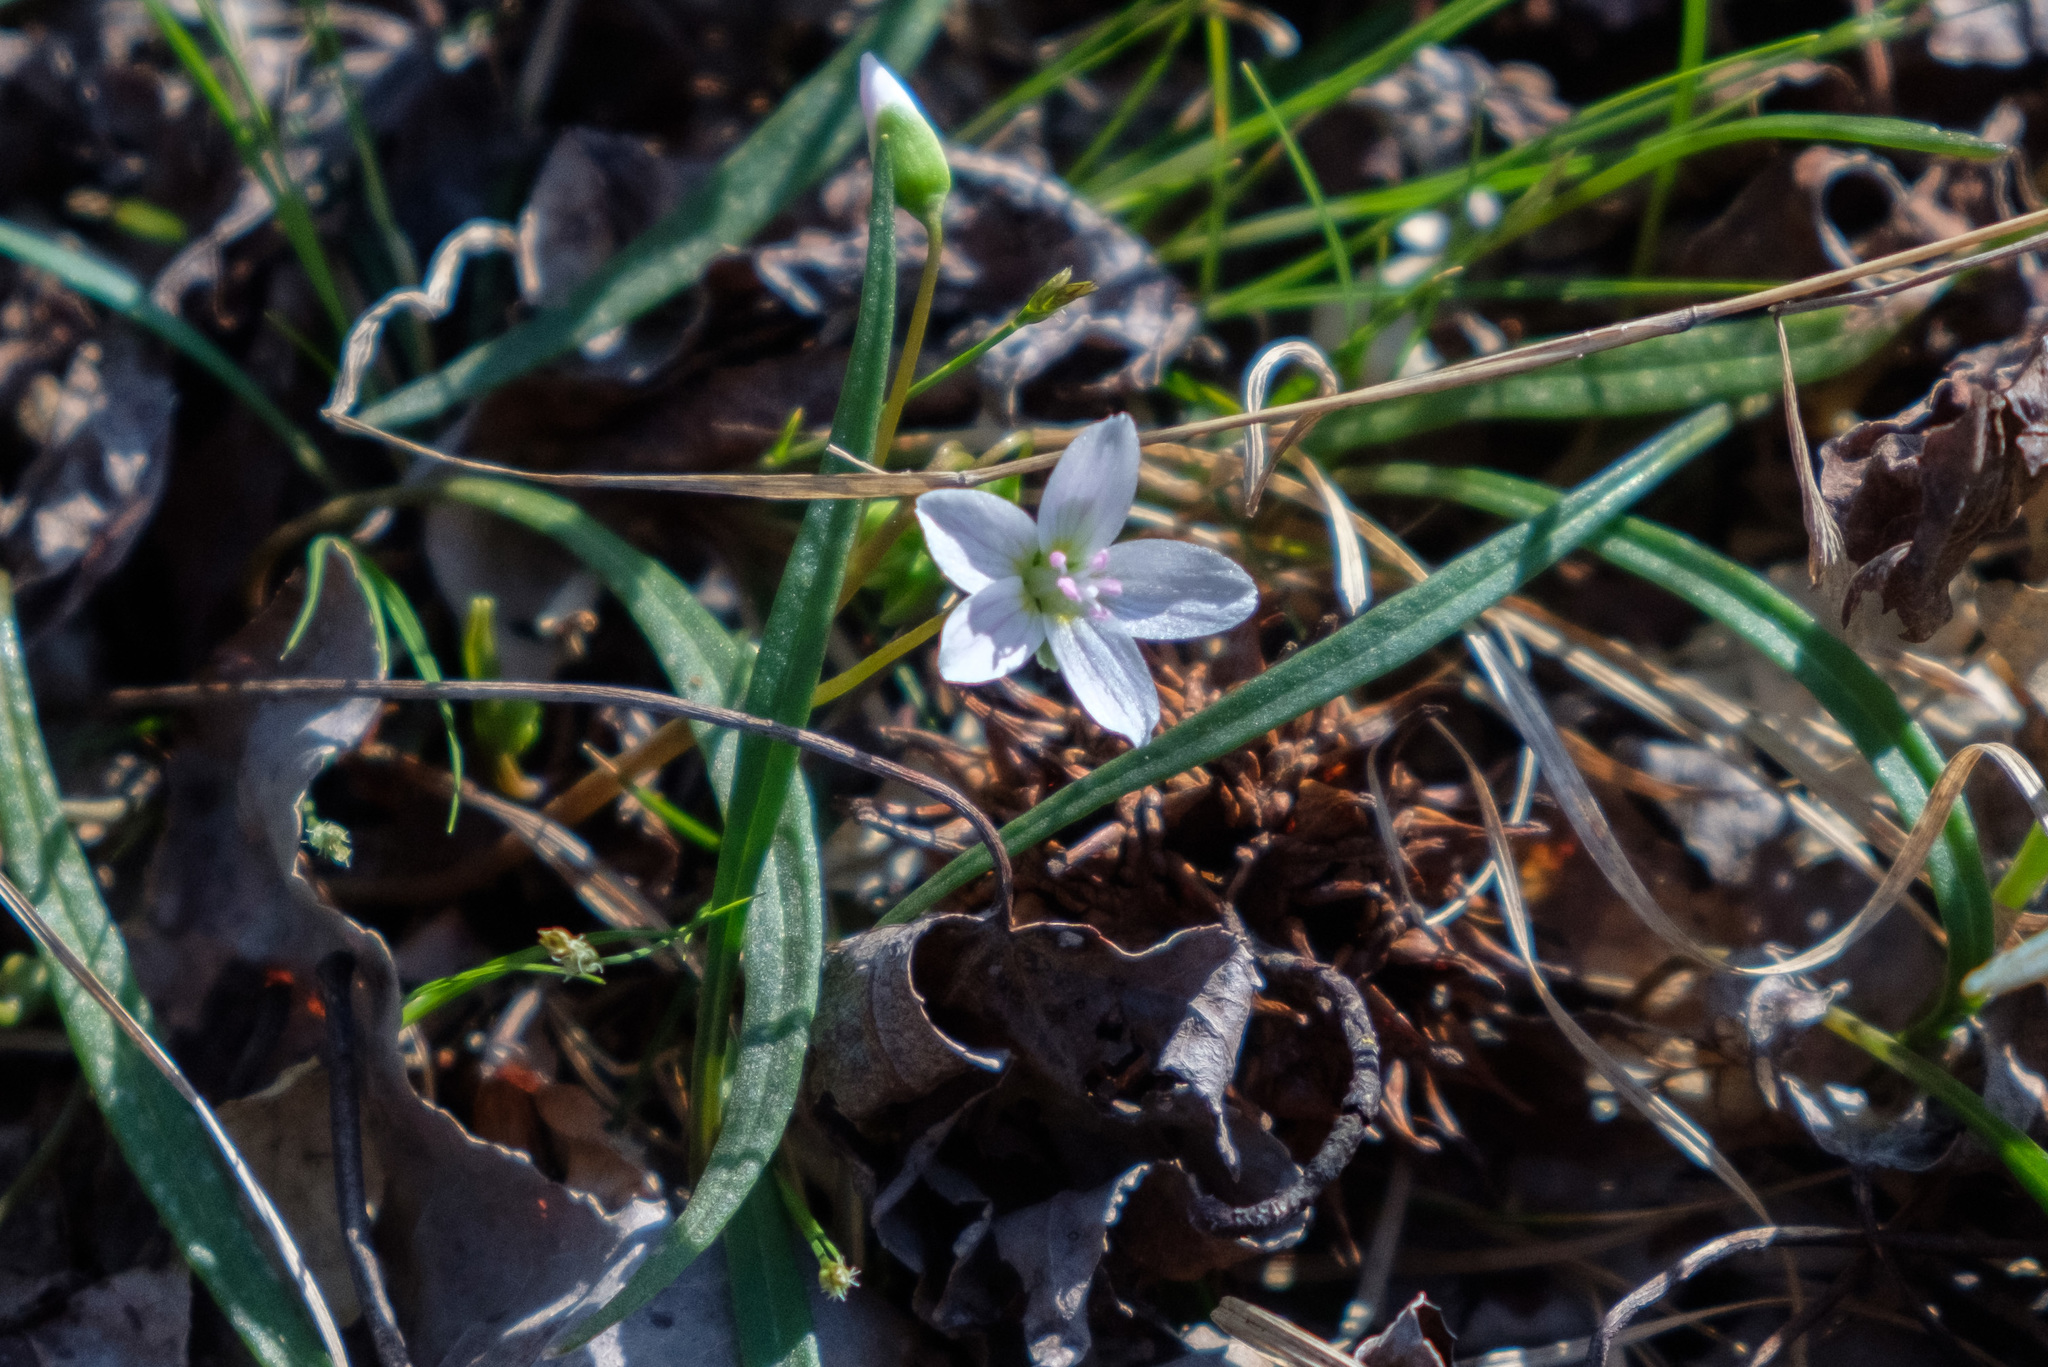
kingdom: Plantae
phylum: Tracheophyta
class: Magnoliopsida
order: Caryophyllales
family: Montiaceae
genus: Claytonia
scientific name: Claytonia virginica
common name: Virginia springbeauty
